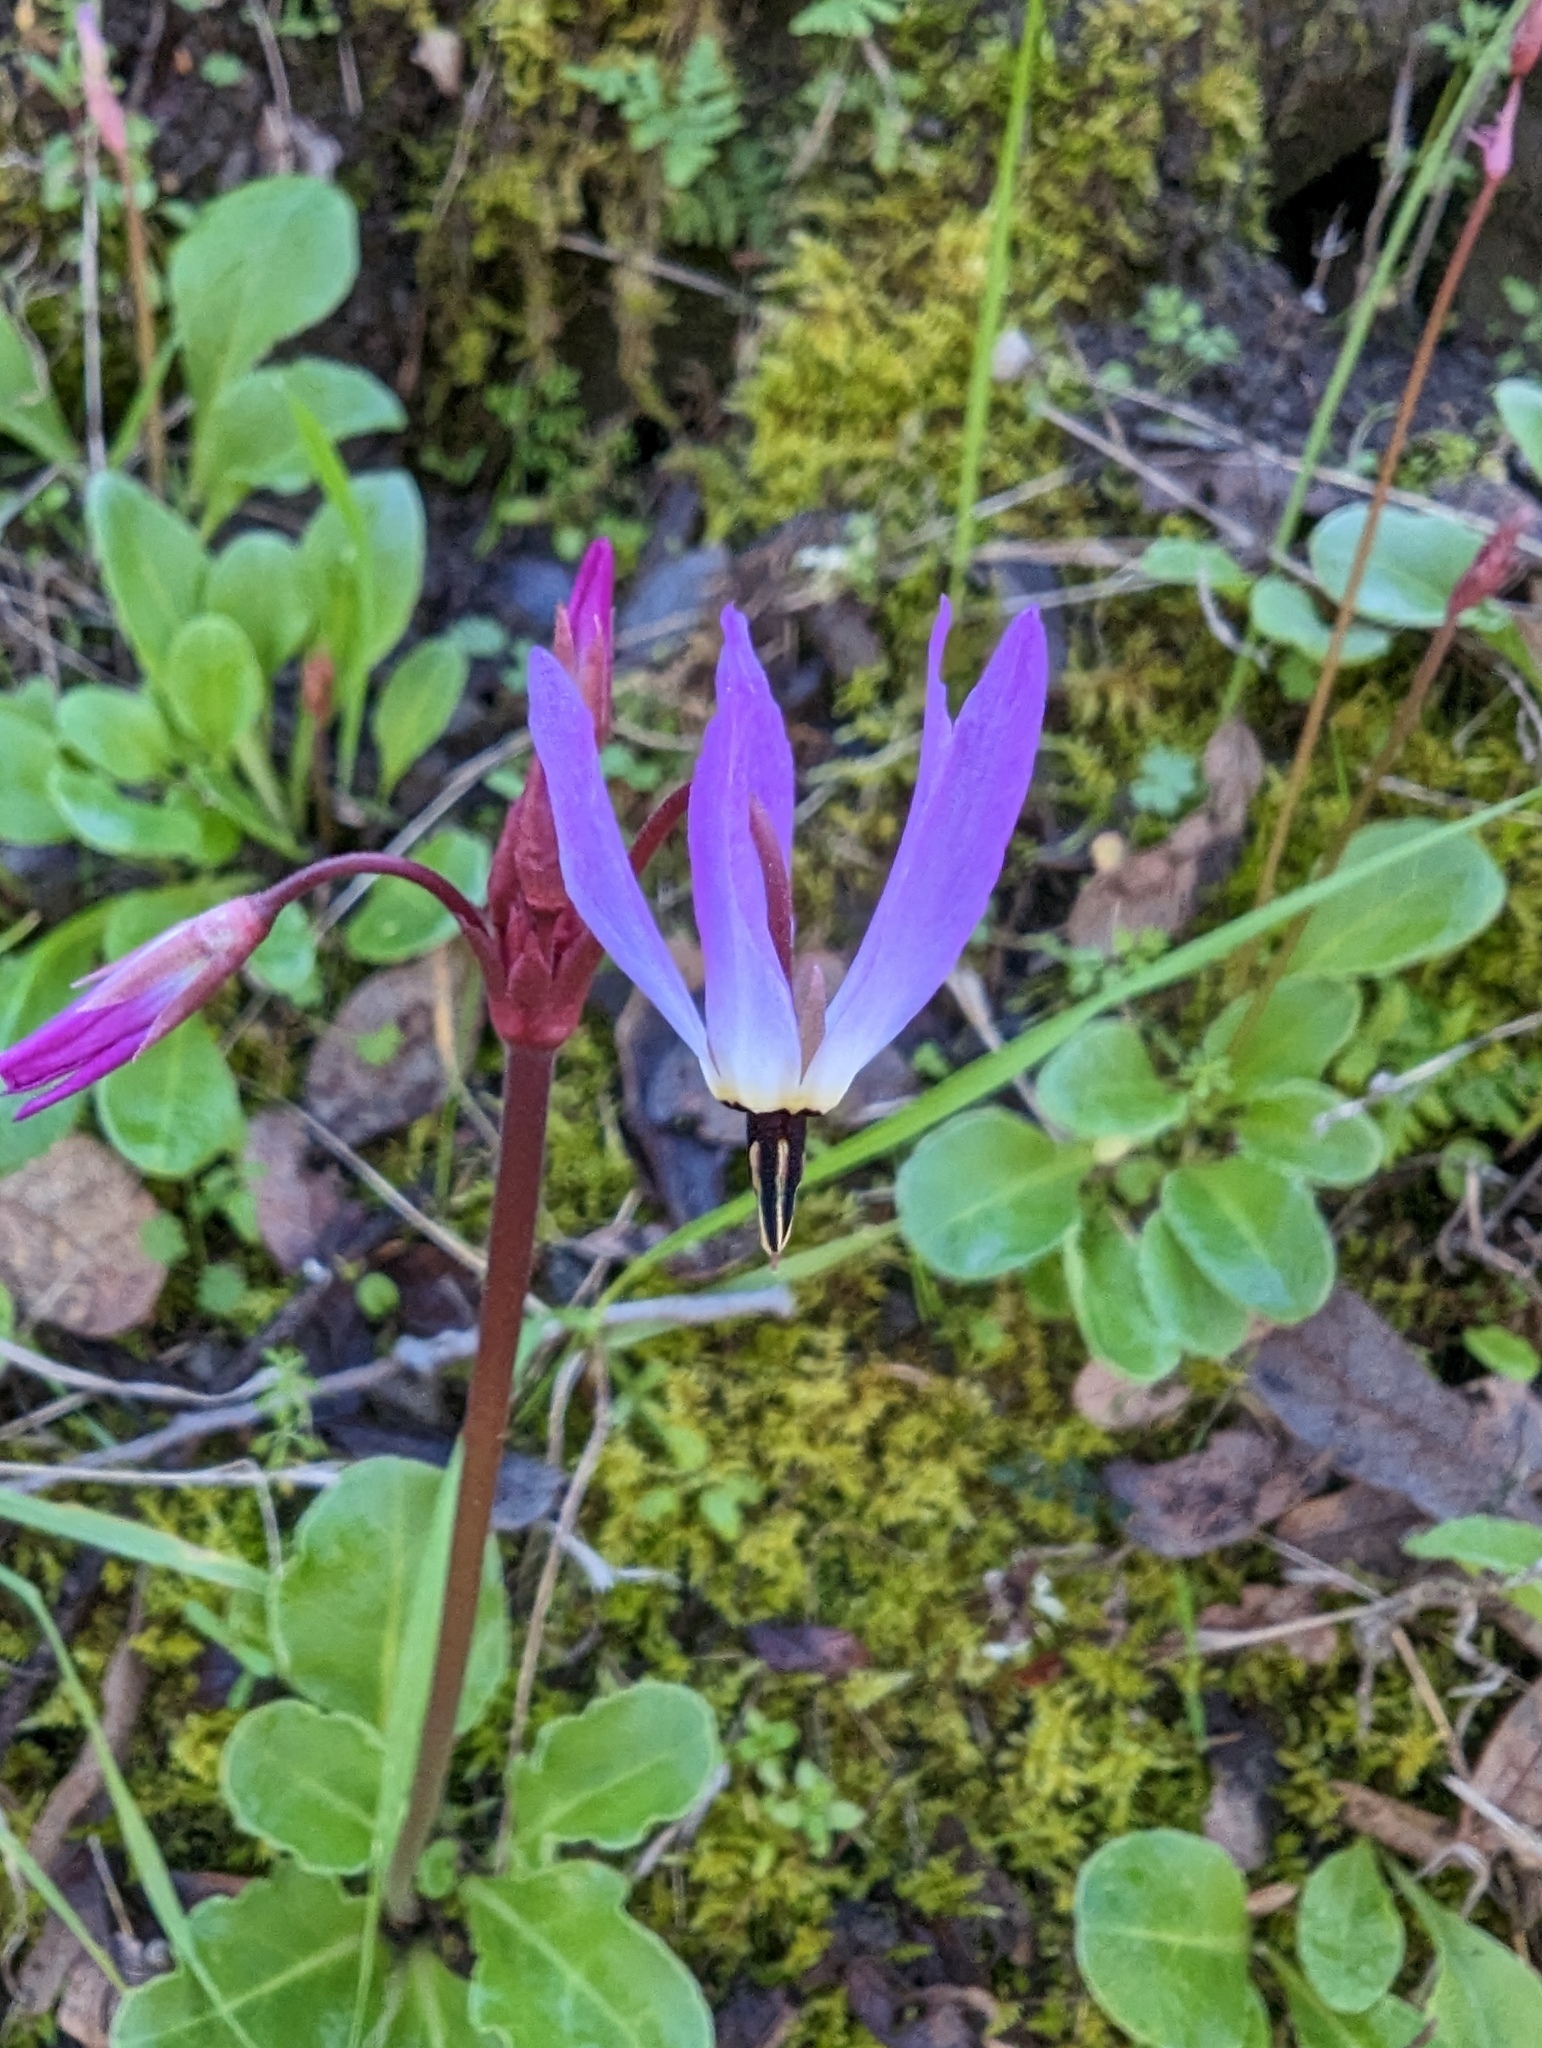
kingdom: Plantae
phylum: Tracheophyta
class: Magnoliopsida
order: Ericales
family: Primulaceae
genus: Dodecatheon
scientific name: Dodecatheon hendersonii
